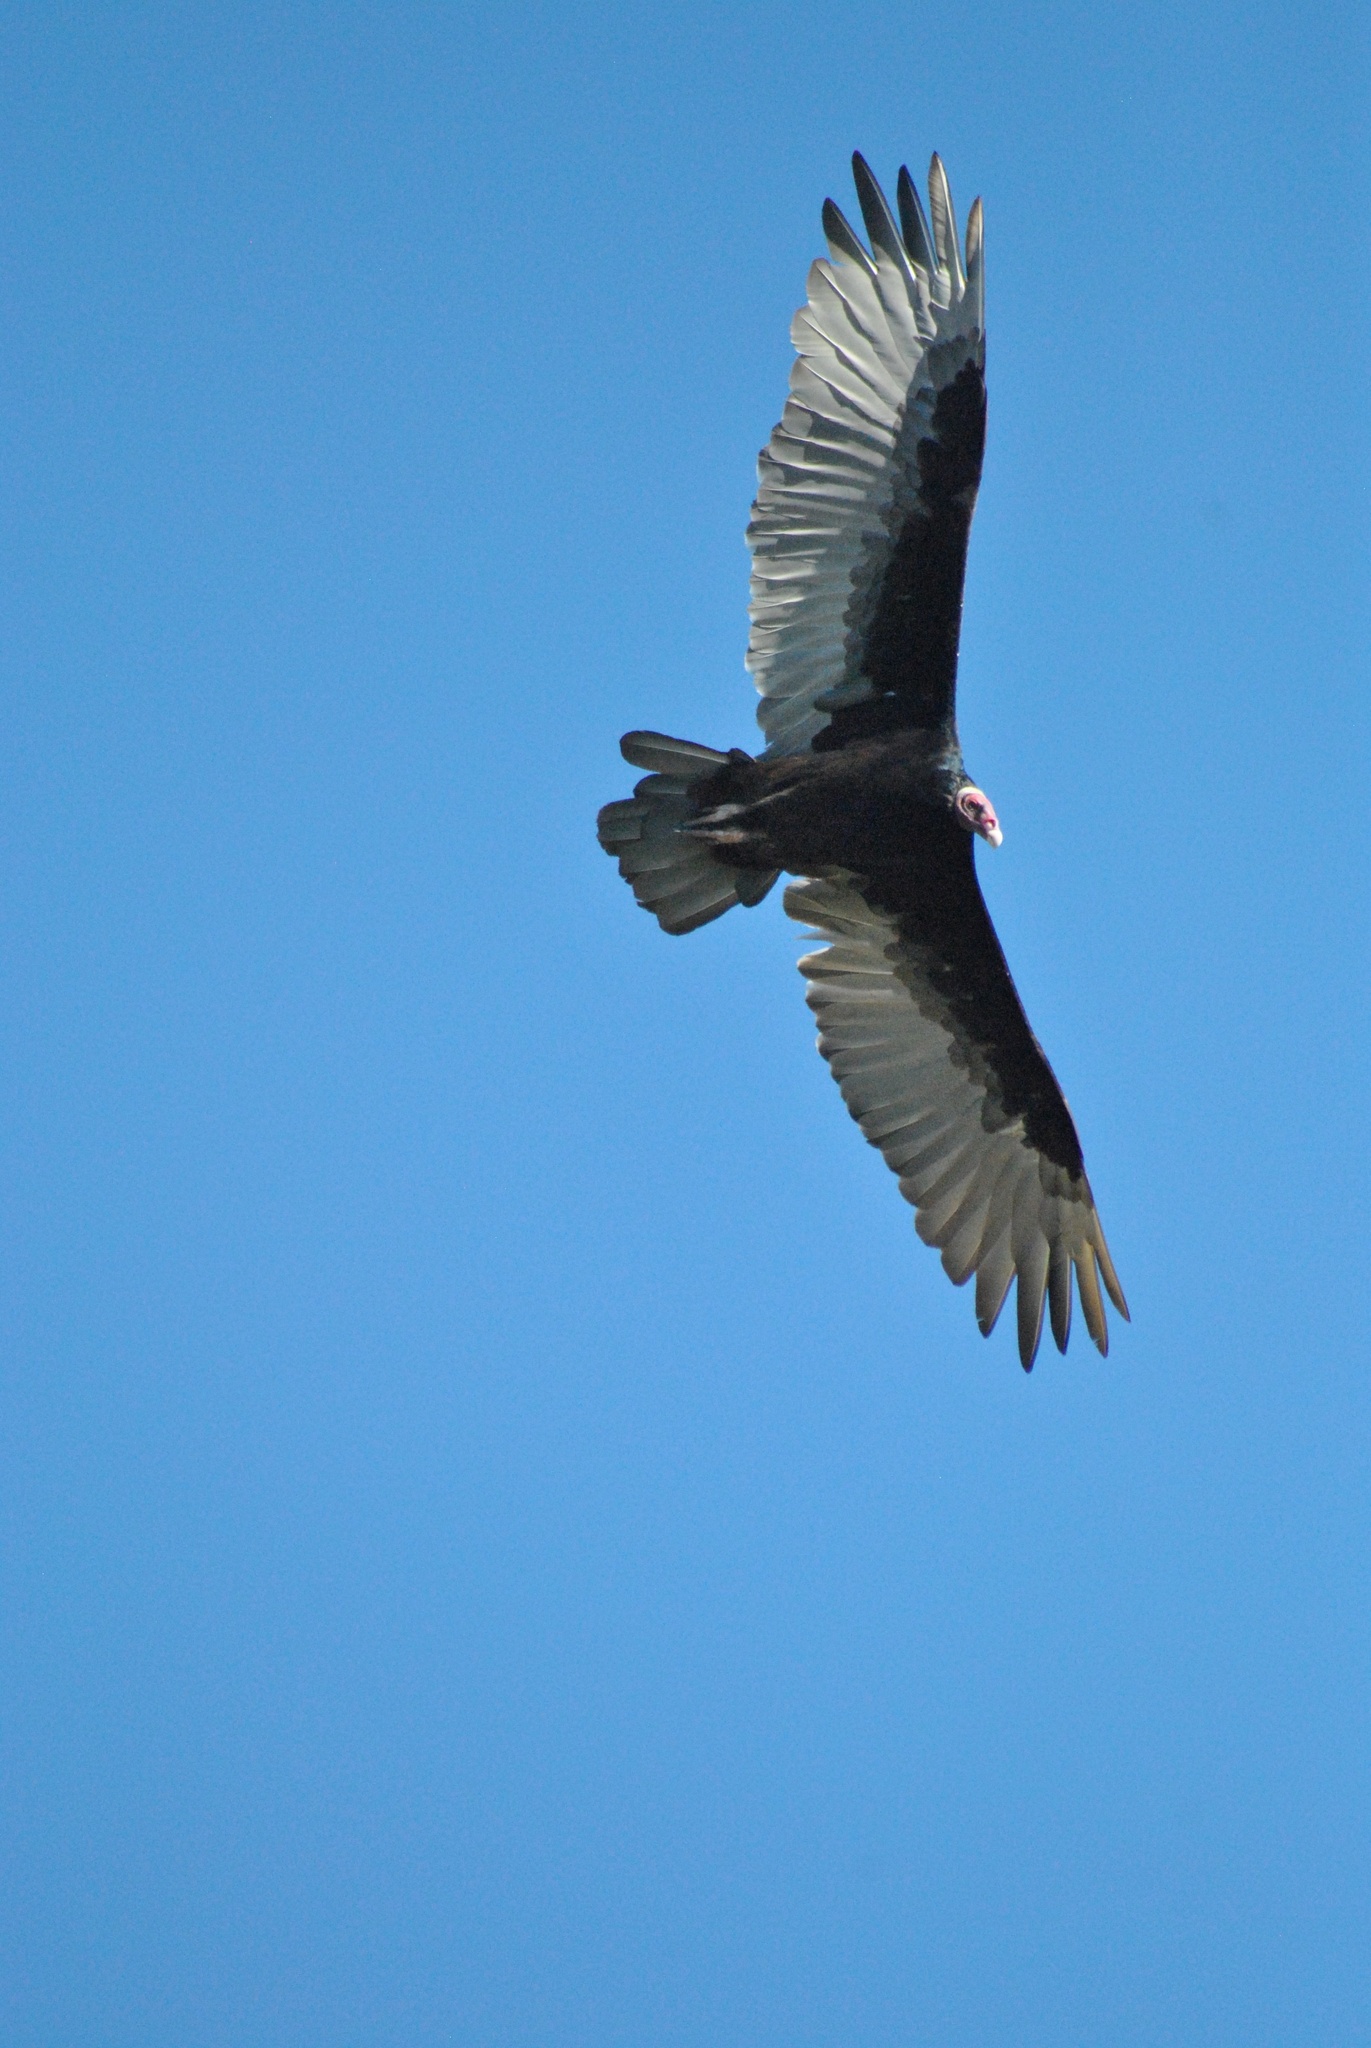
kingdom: Animalia
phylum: Chordata
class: Aves
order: Accipitriformes
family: Cathartidae
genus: Cathartes
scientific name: Cathartes aura
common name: Turkey vulture
